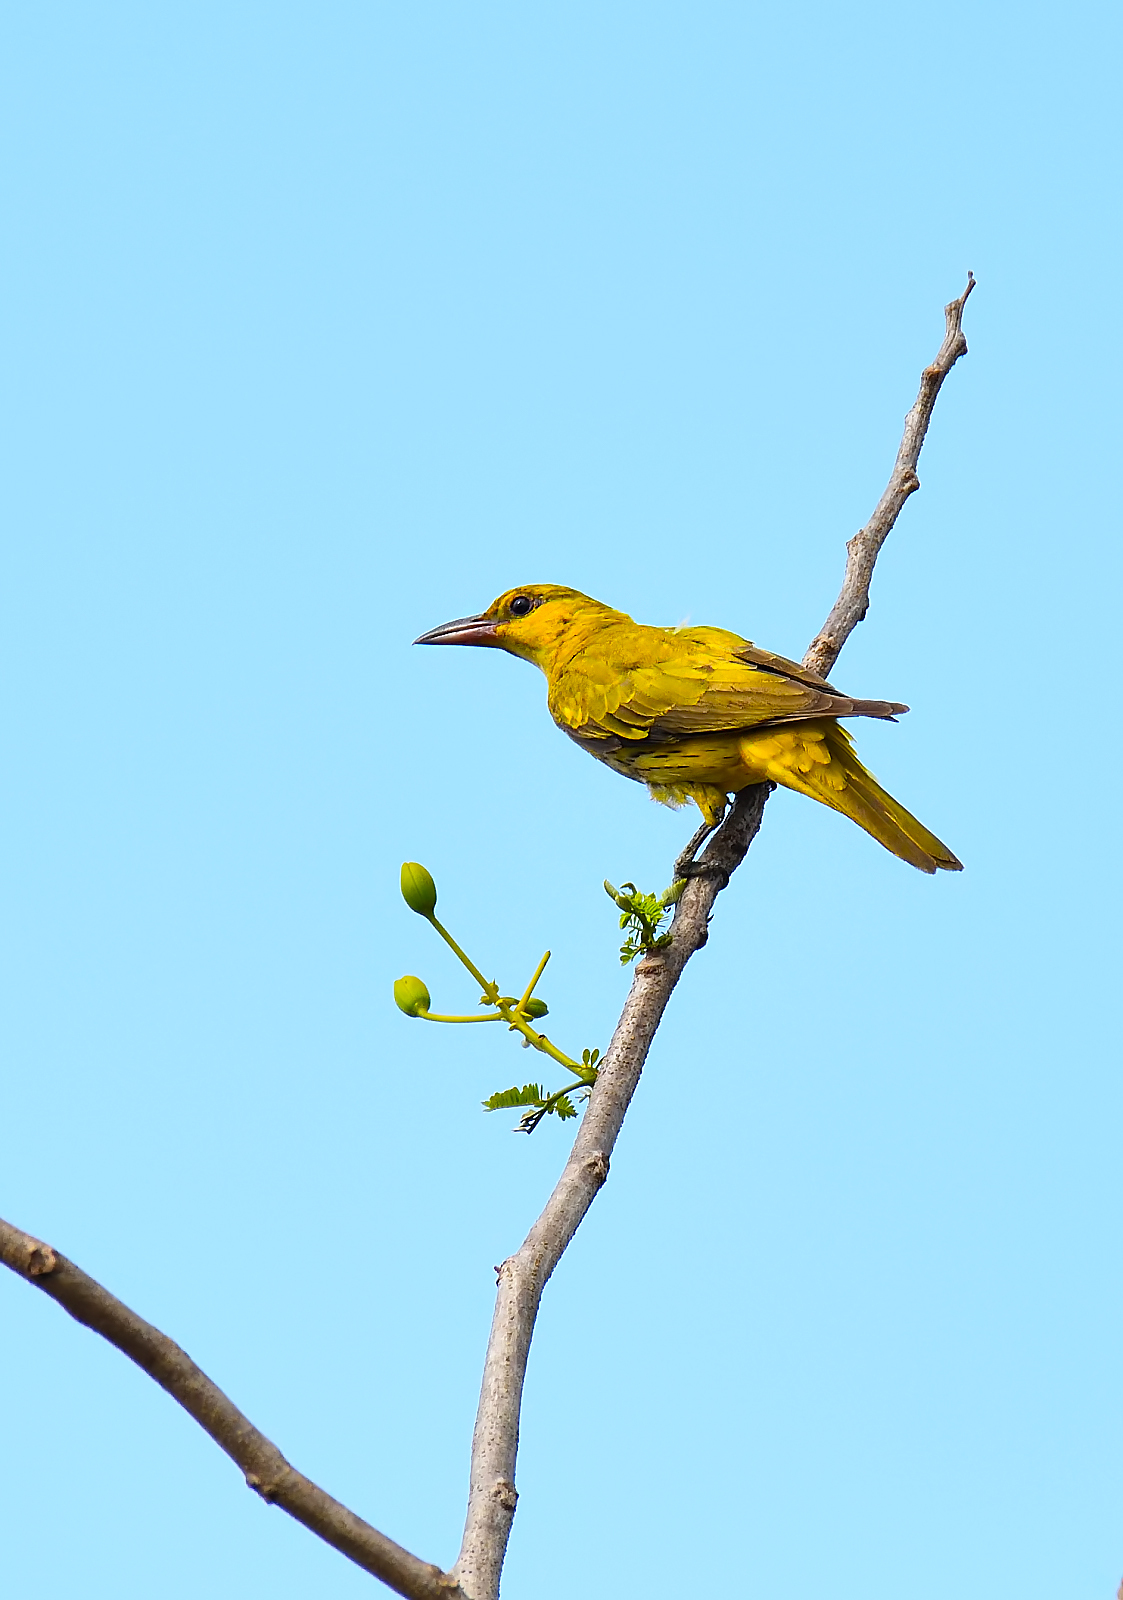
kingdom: Animalia
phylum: Chordata
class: Aves
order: Passeriformes
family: Oriolidae
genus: Oriolus
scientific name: Oriolus kundoo
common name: Indian golden oriole
